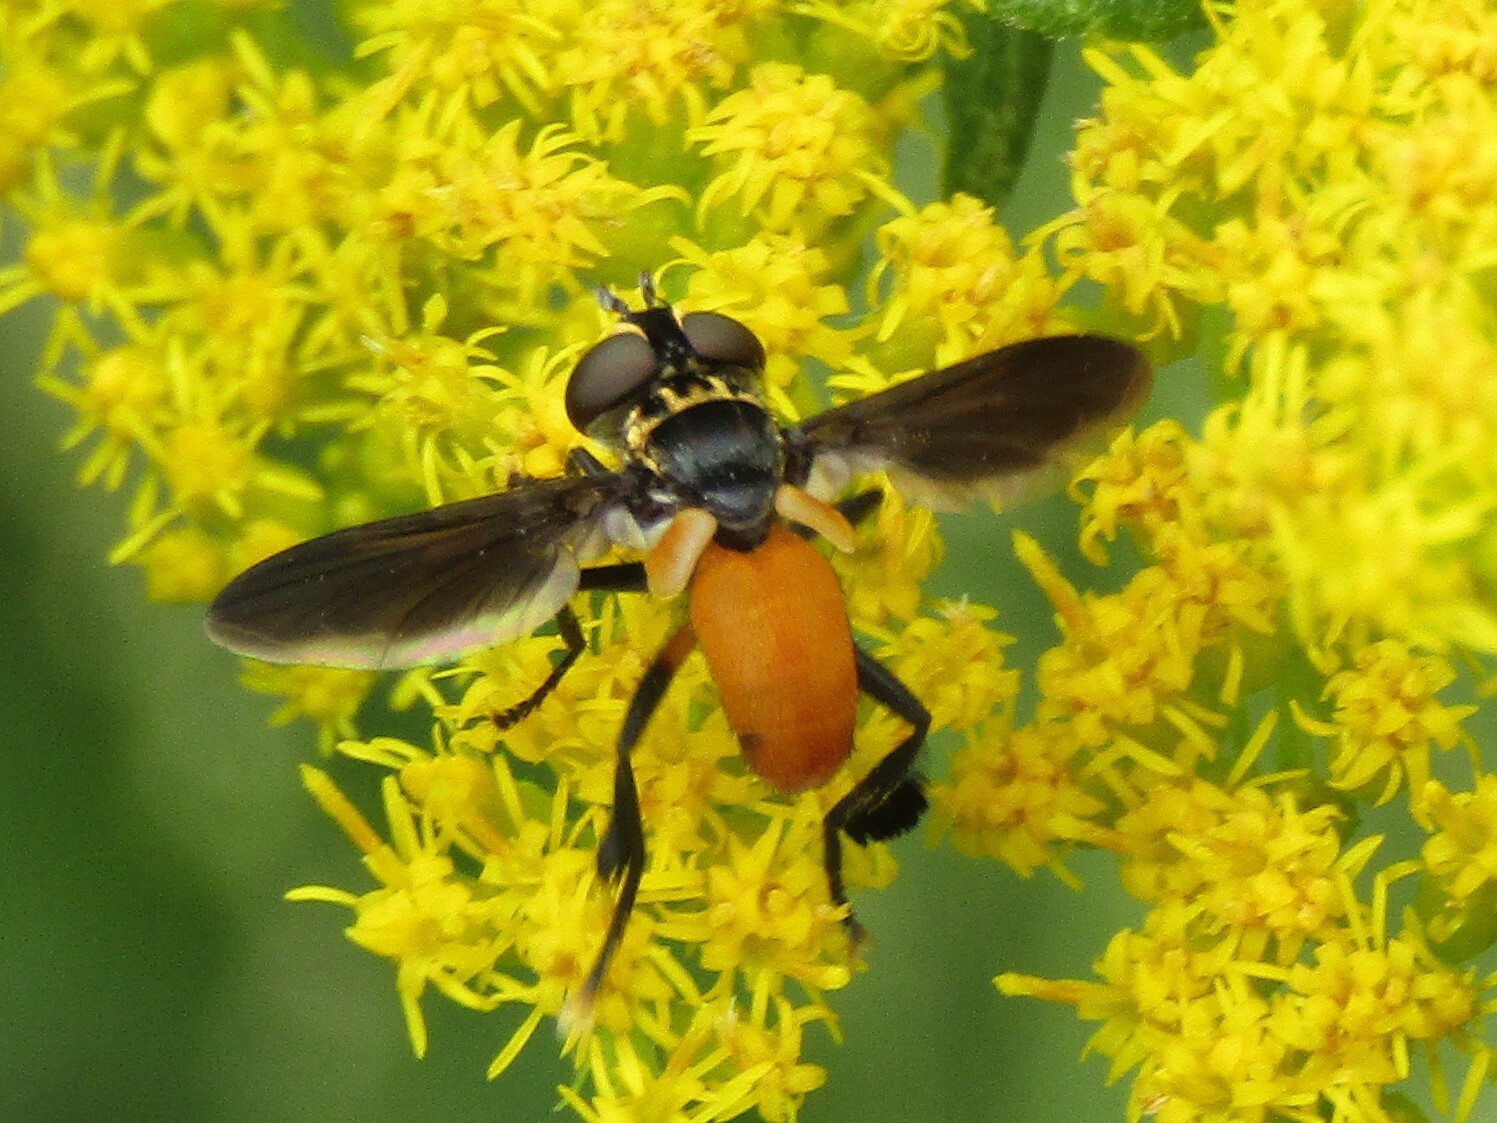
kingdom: Animalia
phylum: Arthropoda
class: Insecta
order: Diptera
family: Tachinidae
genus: Trichopoda
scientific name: Trichopoda pennipes
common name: Tachinid fly
